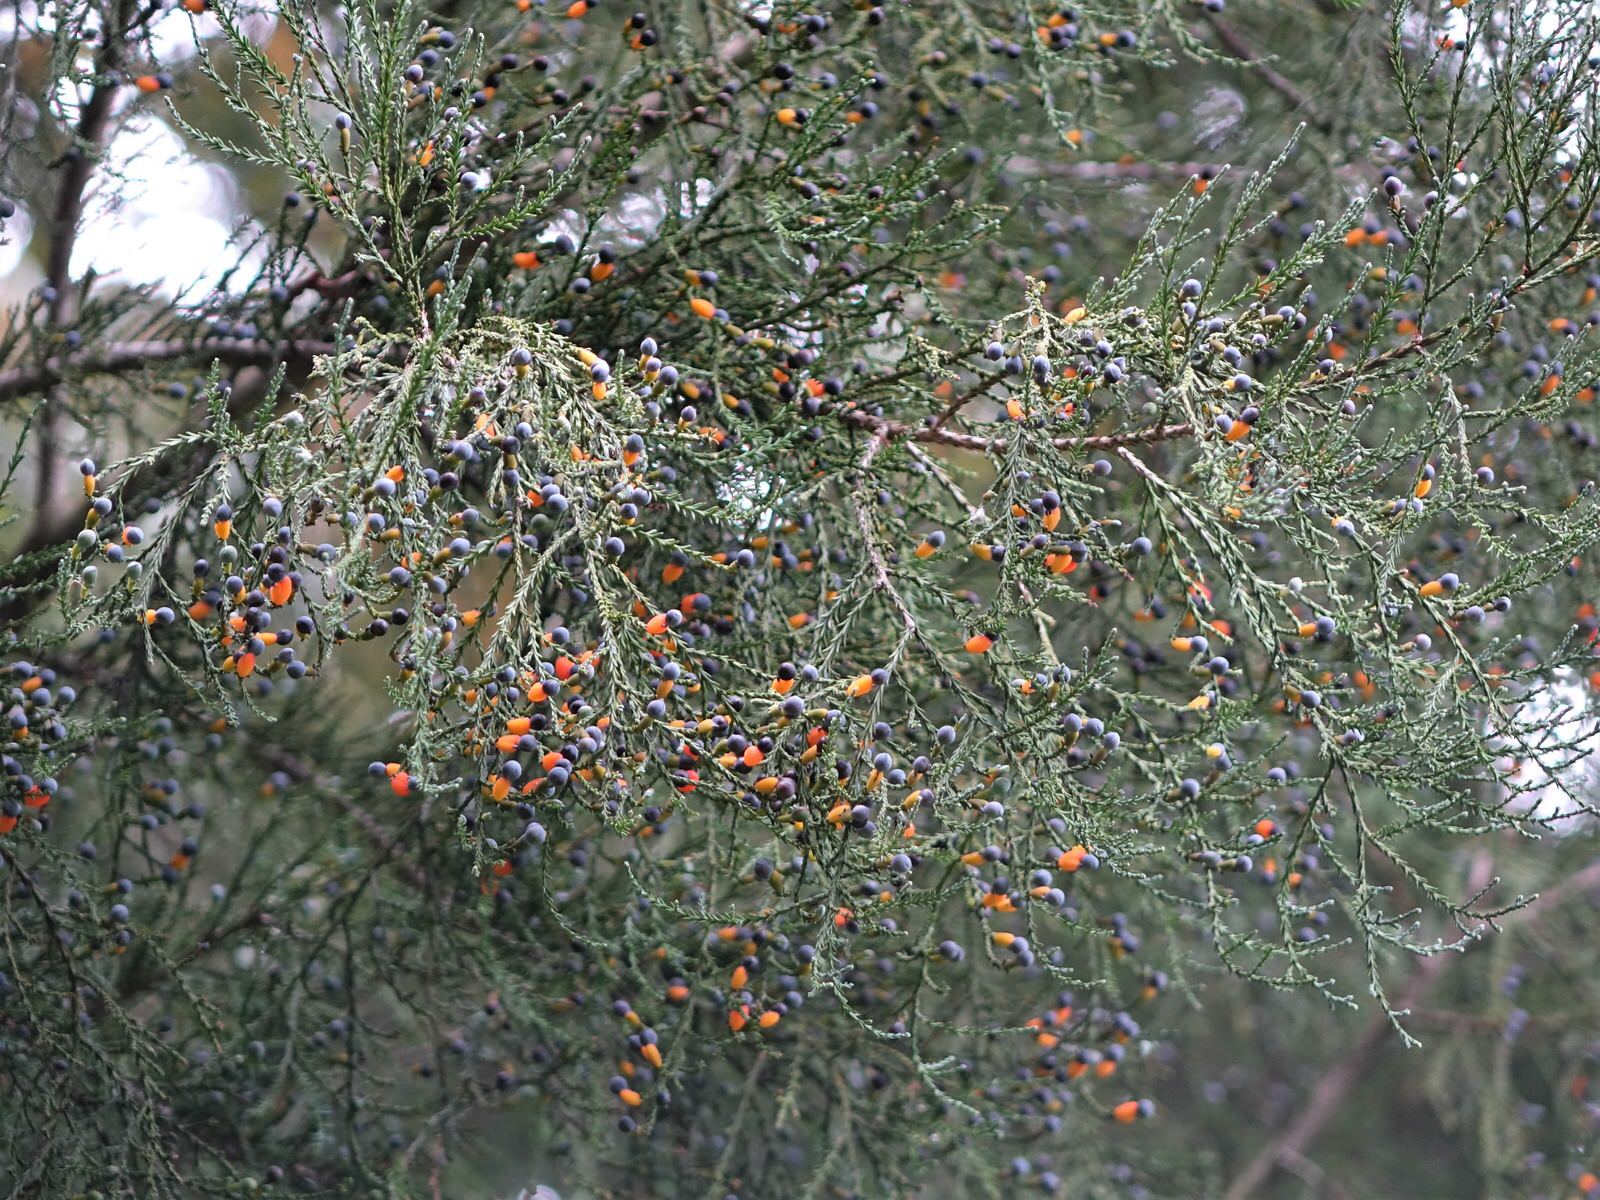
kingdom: Plantae
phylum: Tracheophyta
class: Pinopsida
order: Pinales
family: Podocarpaceae
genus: Dacrycarpus
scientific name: Dacrycarpus dacrydioides
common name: White pine
